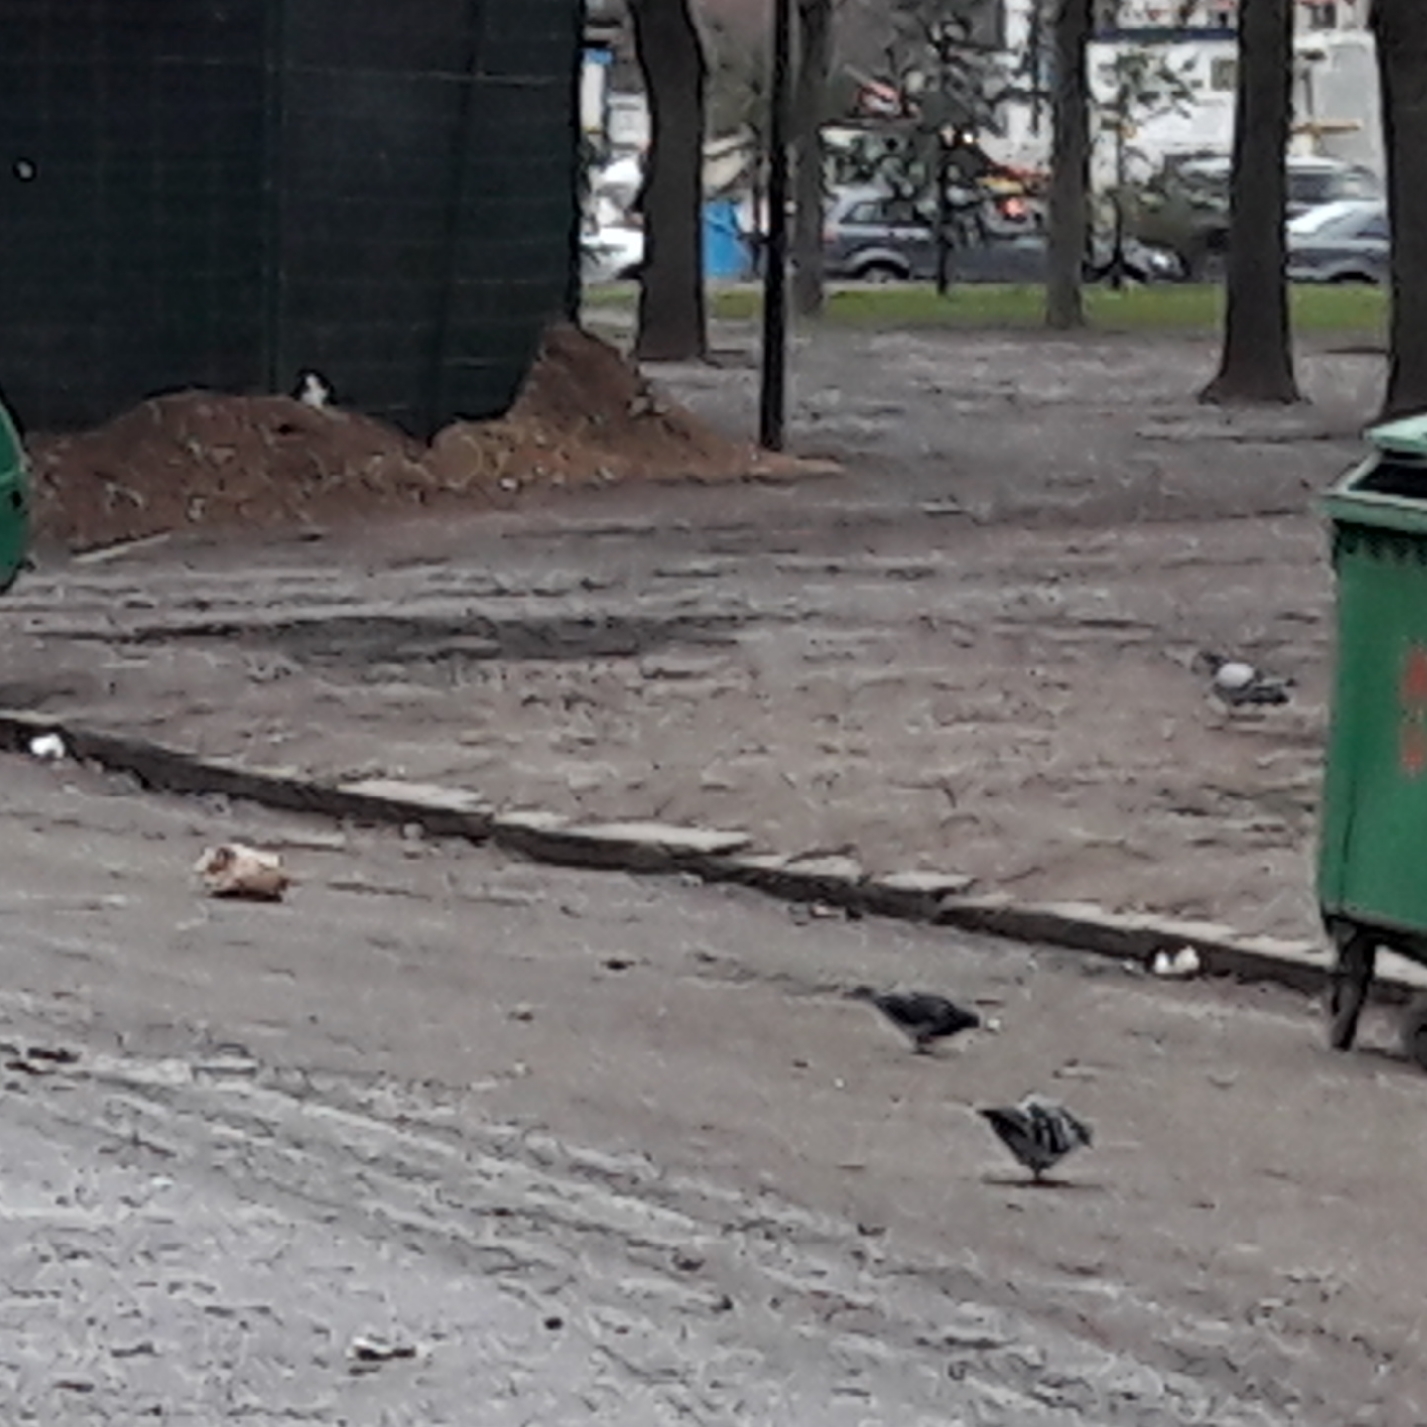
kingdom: Animalia
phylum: Chordata
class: Aves
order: Columbiformes
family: Columbidae
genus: Columba
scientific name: Columba livia
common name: Rock pigeon
